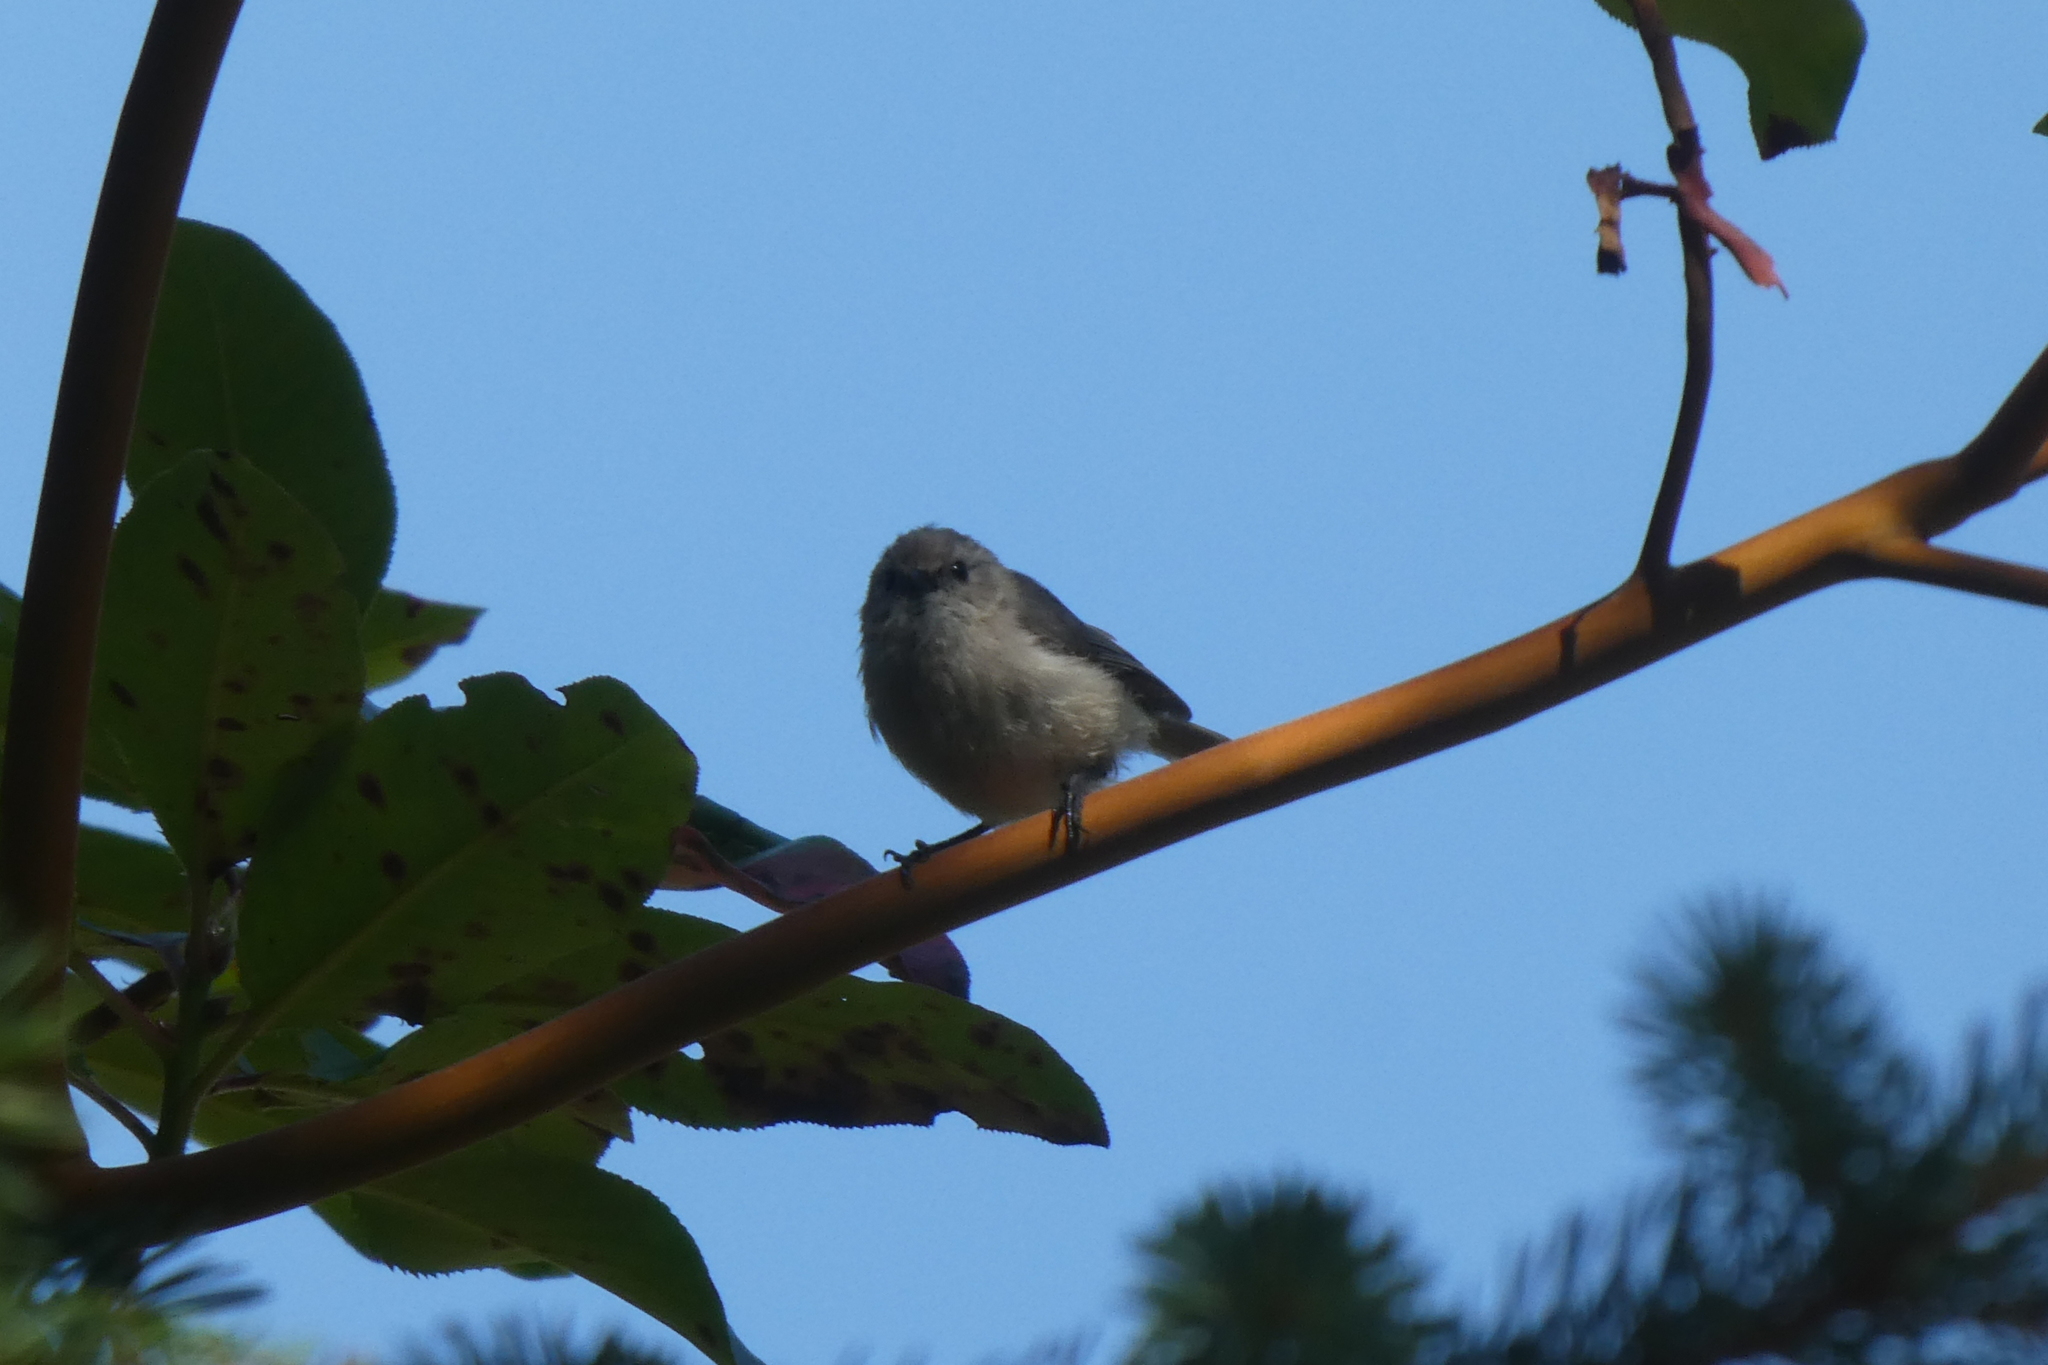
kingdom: Animalia
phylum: Chordata
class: Aves
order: Passeriformes
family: Aegithalidae
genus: Psaltriparus
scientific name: Psaltriparus minimus
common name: American bushtit
